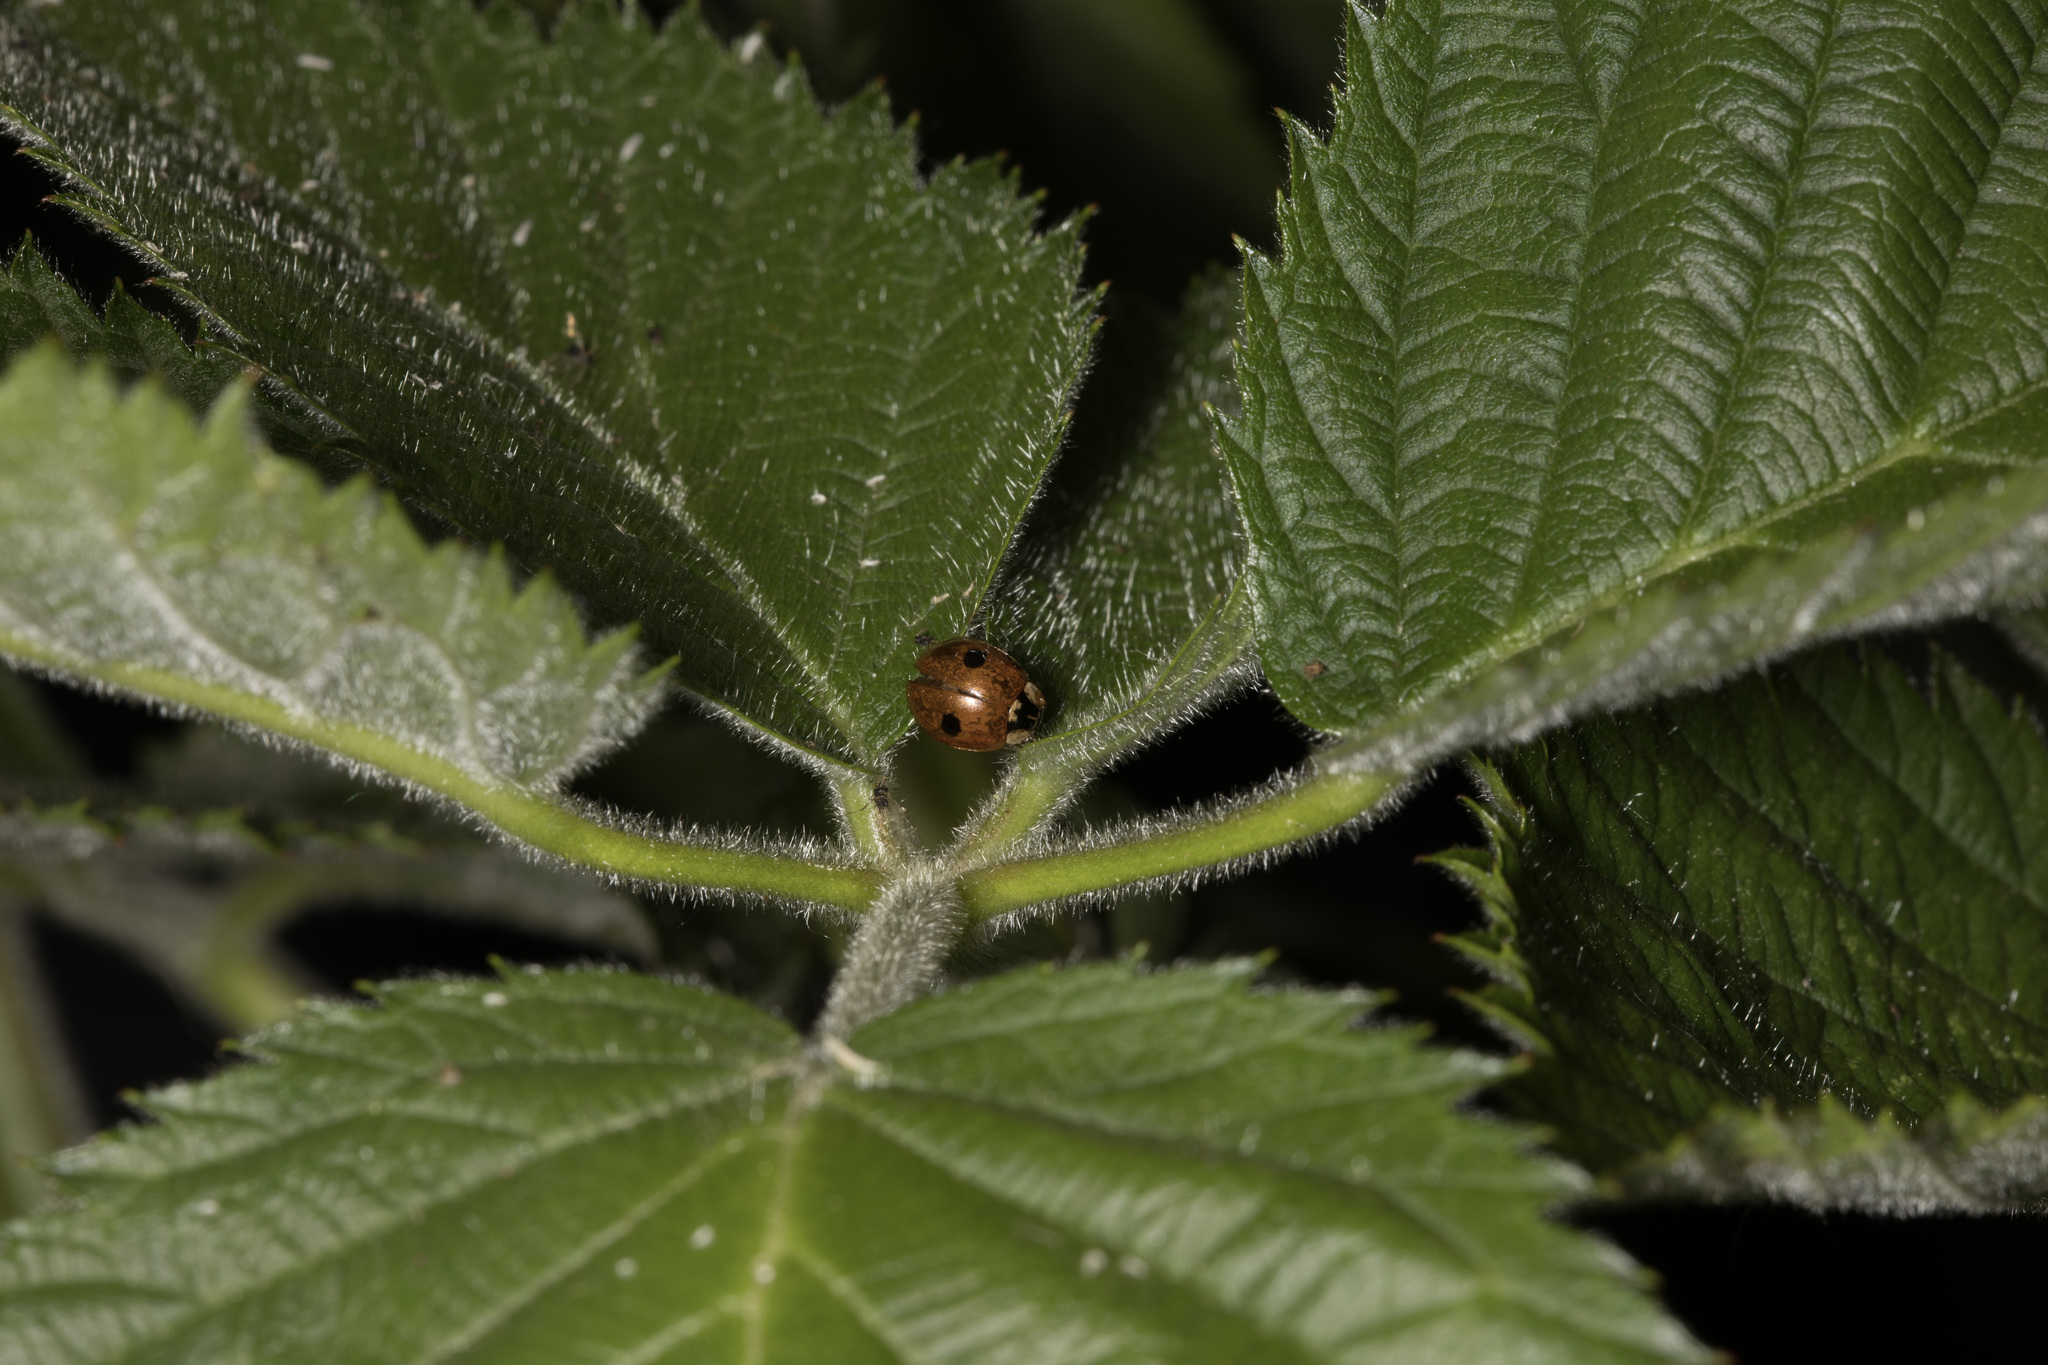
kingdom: Animalia
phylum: Arthropoda
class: Insecta
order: Coleoptera
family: Coccinellidae
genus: Adalia
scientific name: Adalia bipunctata
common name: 2-spot ladybird
